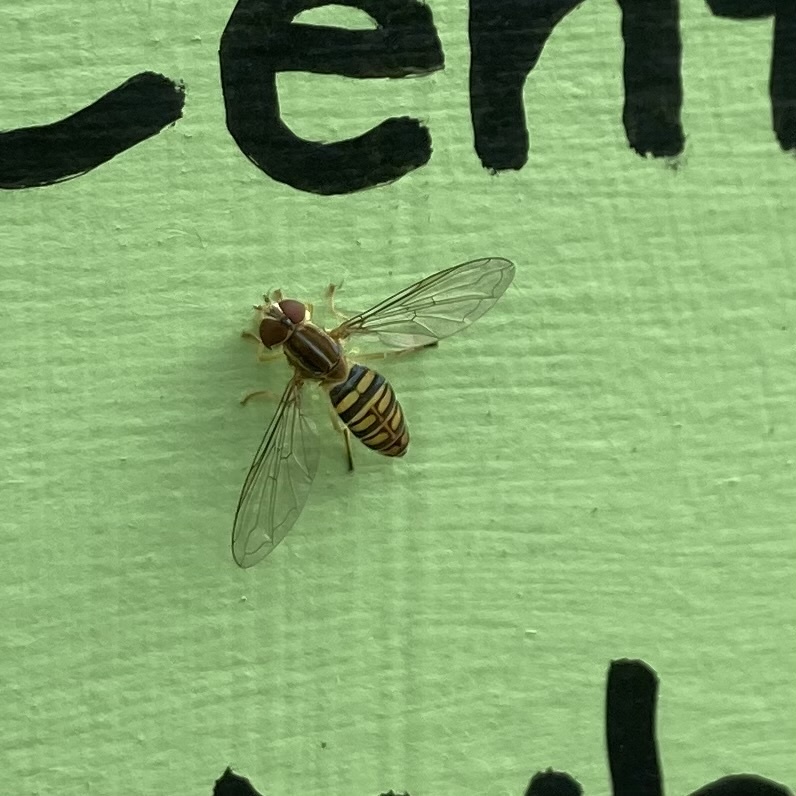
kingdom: Animalia
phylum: Arthropoda
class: Insecta
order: Diptera
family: Syrphidae
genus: Toxomerus
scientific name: Toxomerus politus
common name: Maize calligrapher
